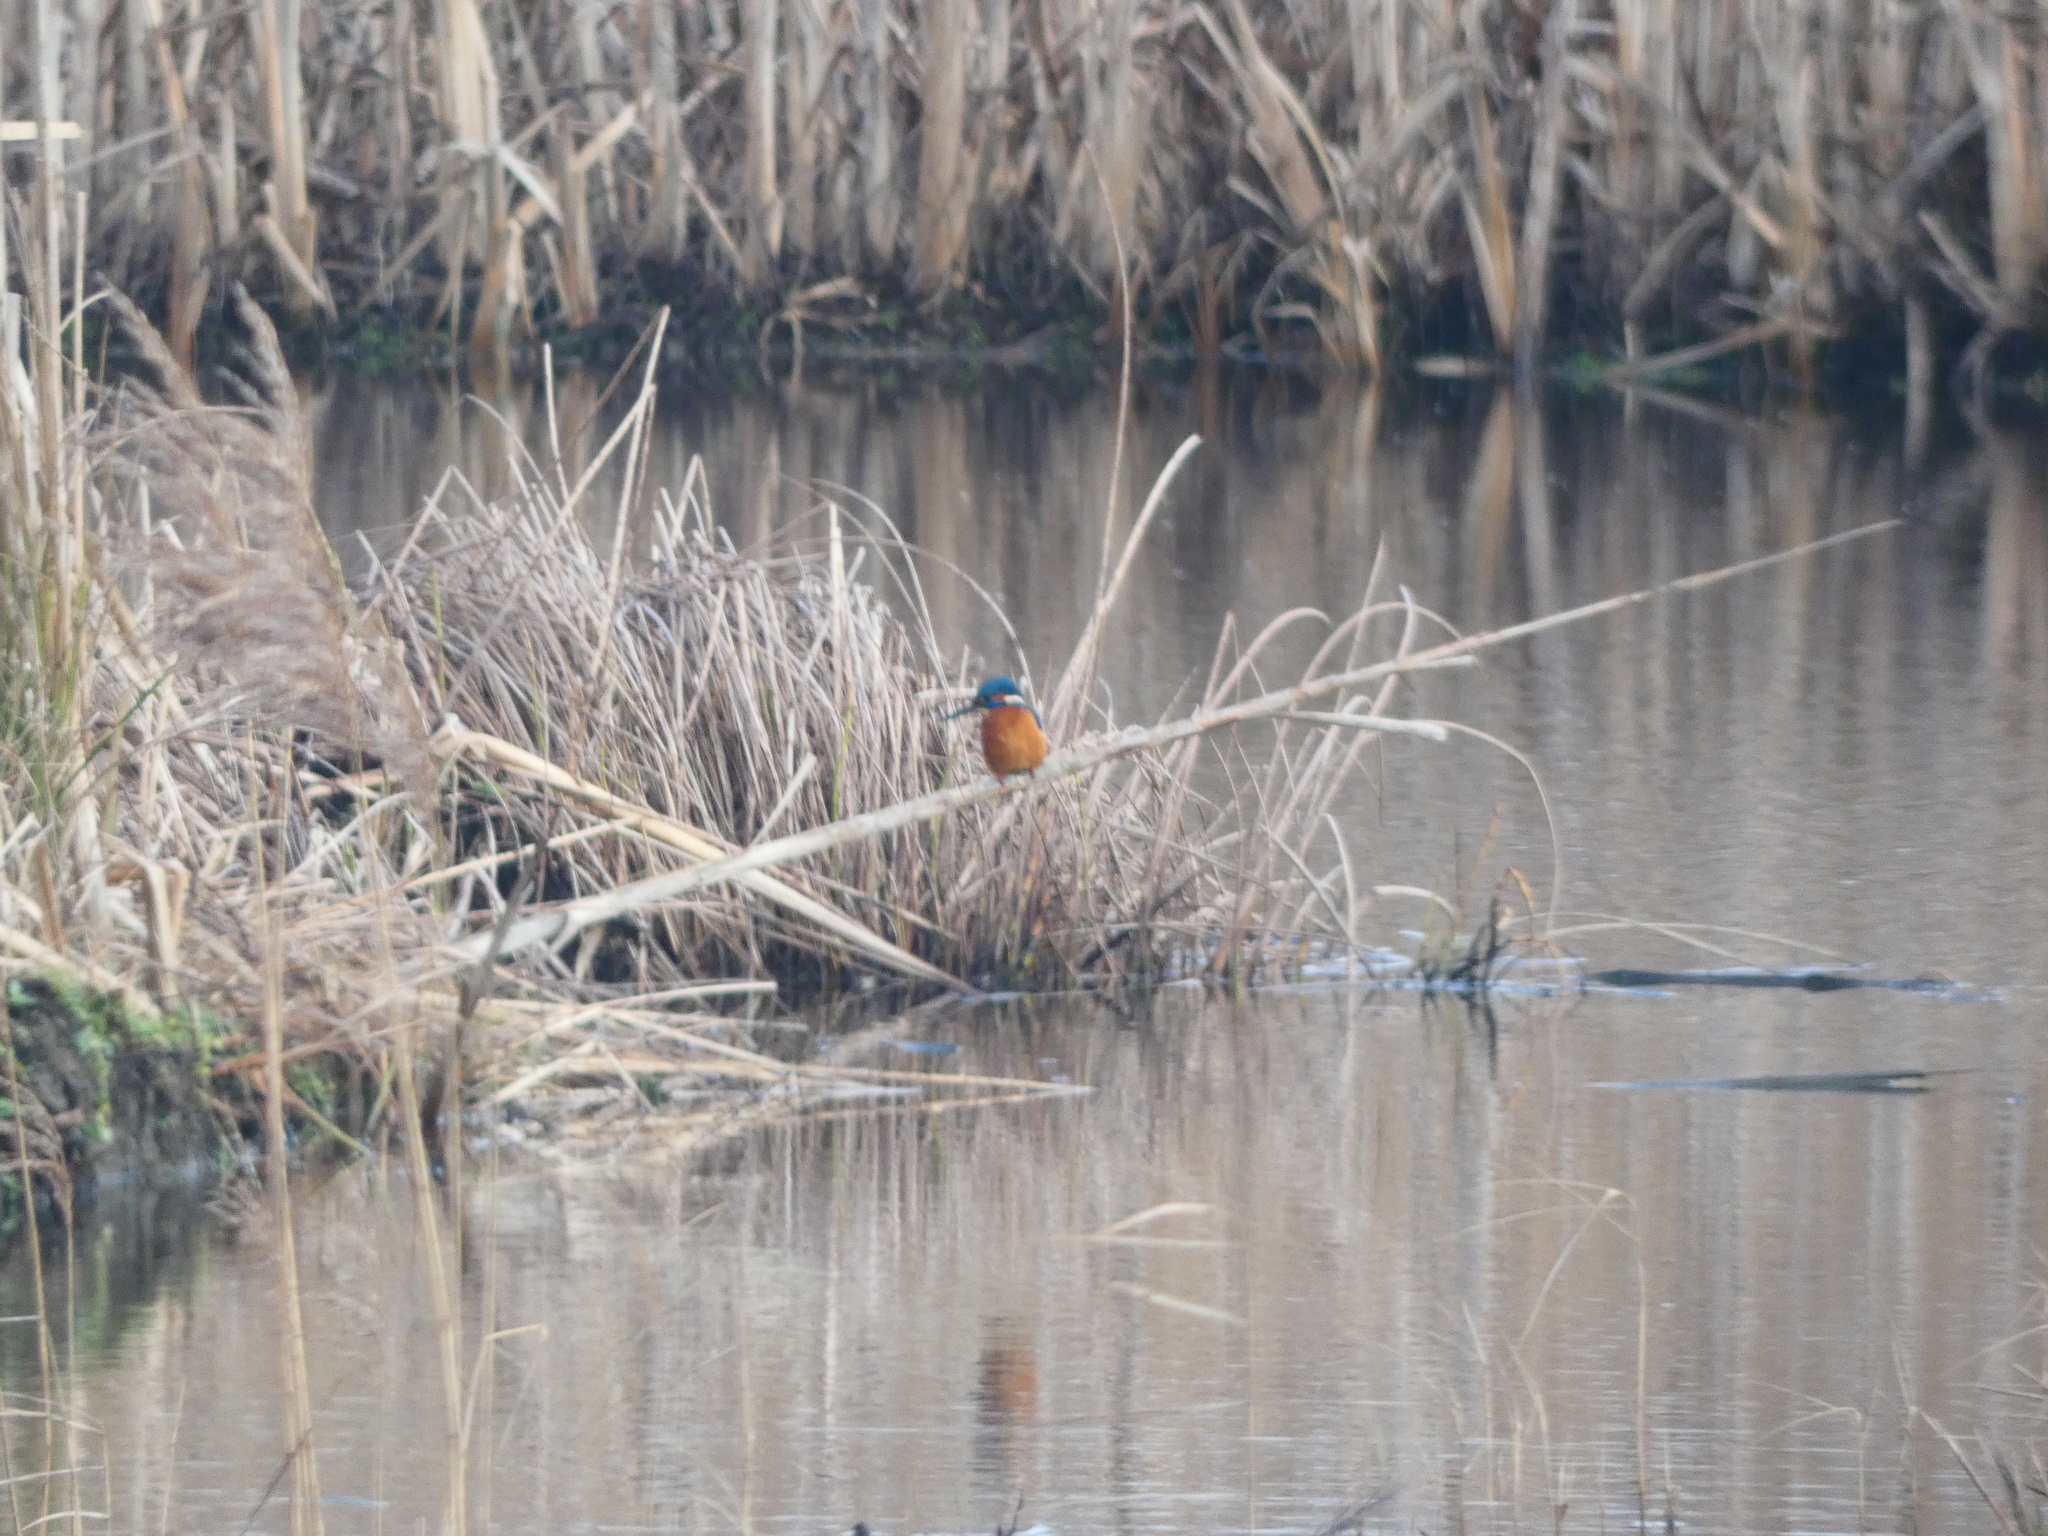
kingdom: Animalia
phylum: Chordata
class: Aves
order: Coraciiformes
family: Alcedinidae
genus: Alcedo
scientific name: Alcedo atthis
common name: Common kingfisher
